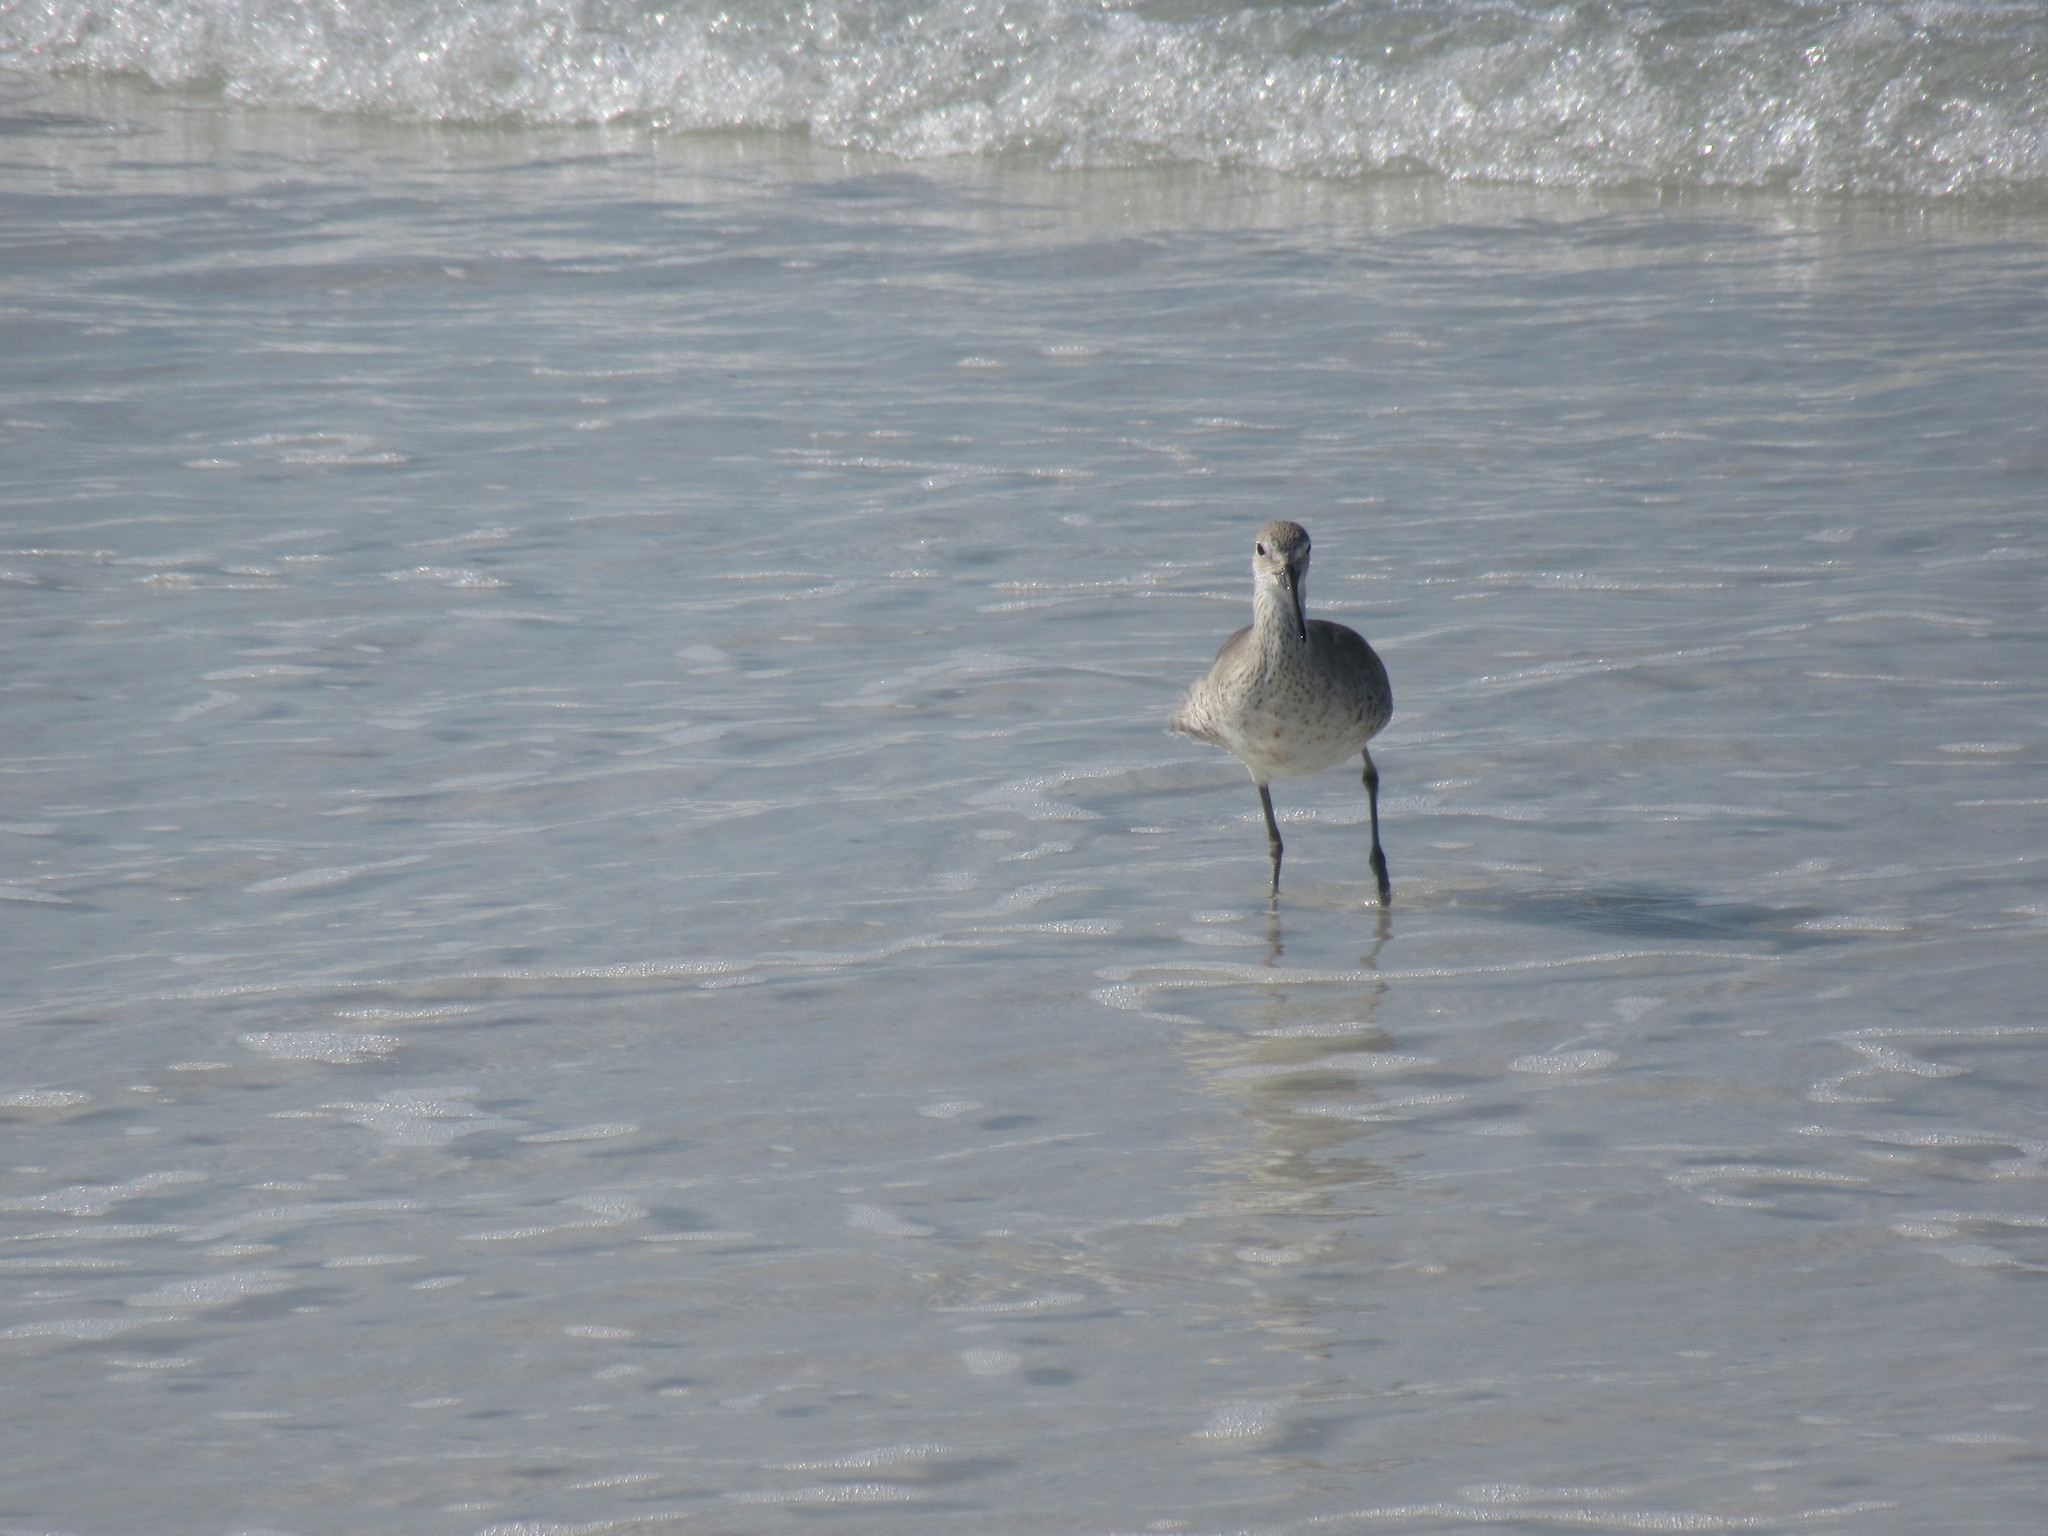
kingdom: Animalia
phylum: Chordata
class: Aves
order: Charadriiformes
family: Scolopacidae
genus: Tringa
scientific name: Tringa semipalmata
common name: Willet
